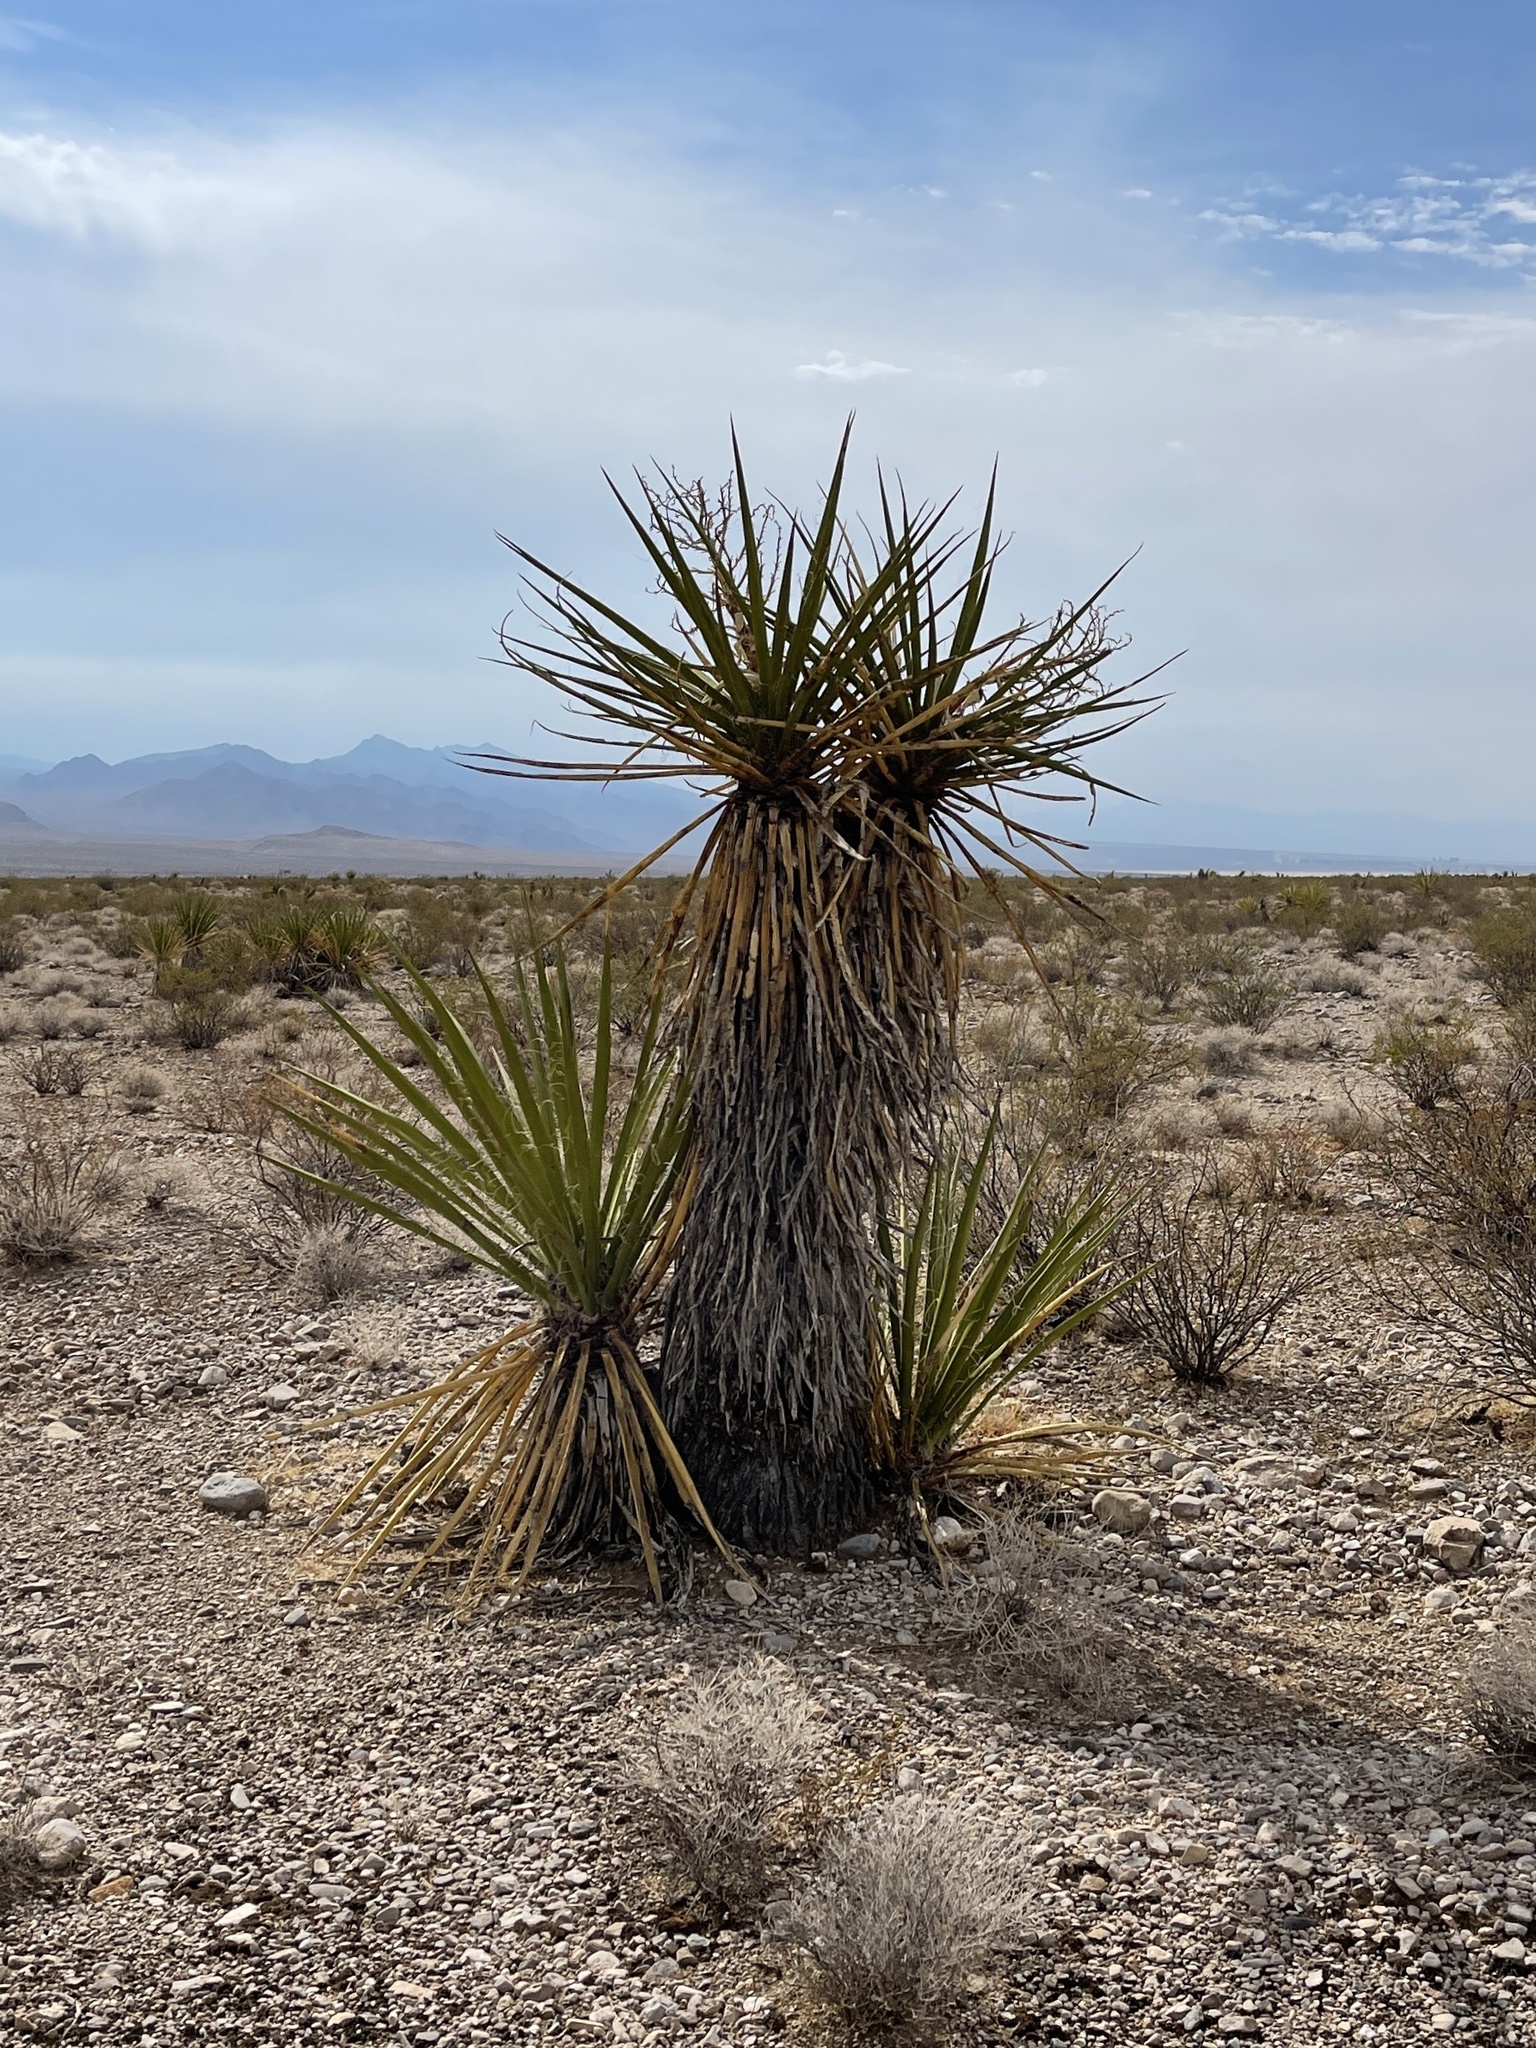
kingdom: Plantae
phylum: Tracheophyta
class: Liliopsida
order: Asparagales
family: Asparagaceae
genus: Yucca
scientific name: Yucca schidigera
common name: Mojave yucca
